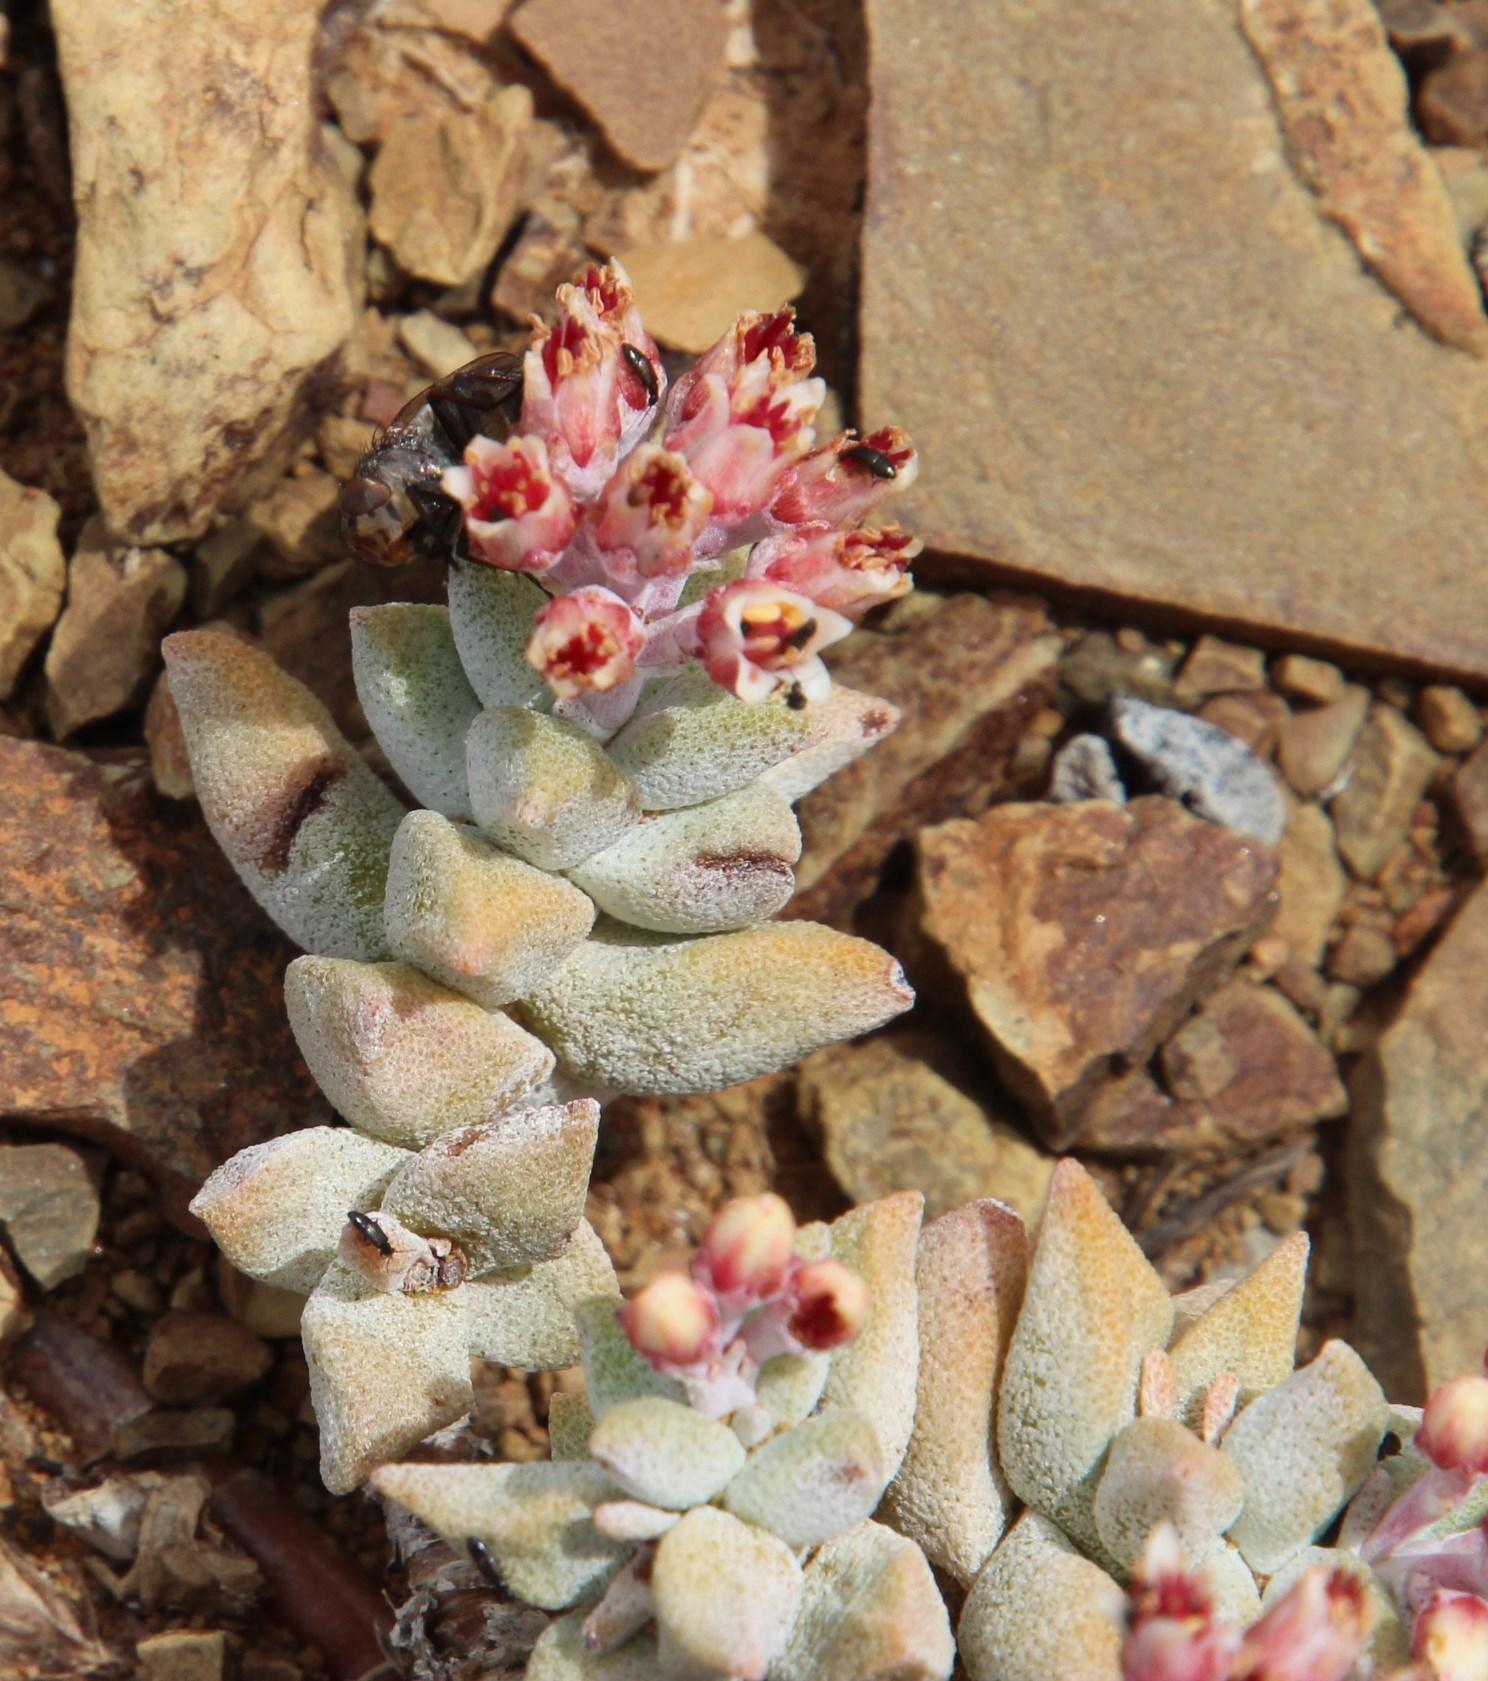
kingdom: Plantae
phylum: Tracheophyta
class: Magnoliopsida
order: Saxifragales
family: Crassulaceae
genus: Crassula
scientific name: Crassula deltoidea
